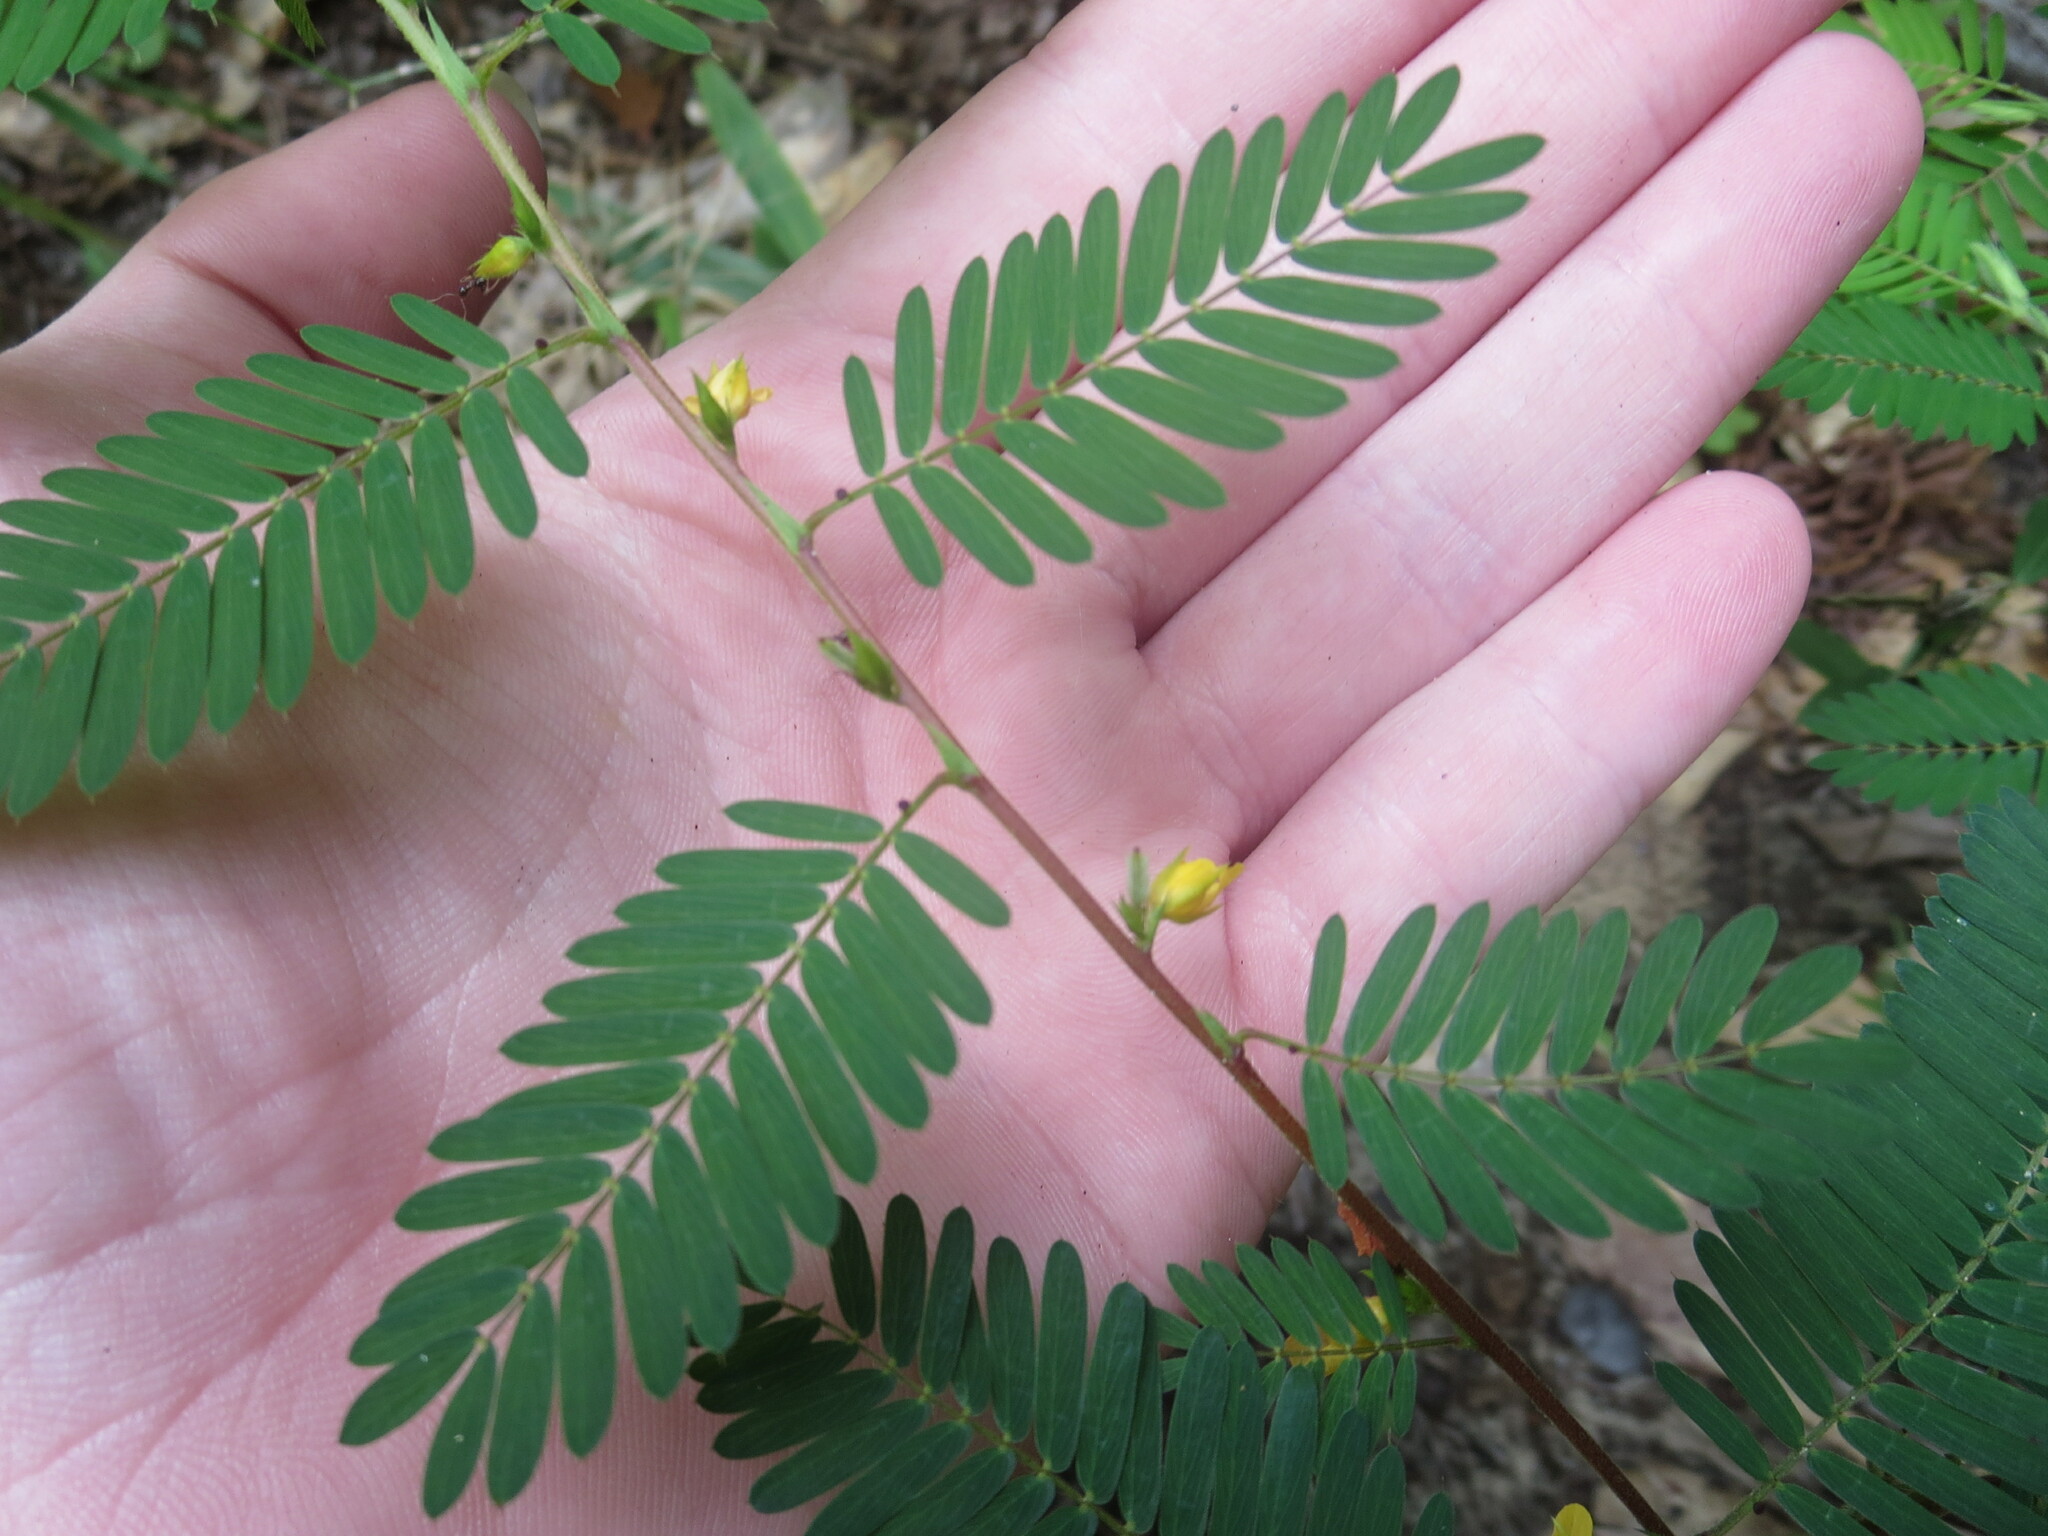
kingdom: Plantae
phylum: Tracheophyta
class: Magnoliopsida
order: Fabales
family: Fabaceae
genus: Chamaecrista
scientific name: Chamaecrista nictitans
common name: Sensitive cassia
